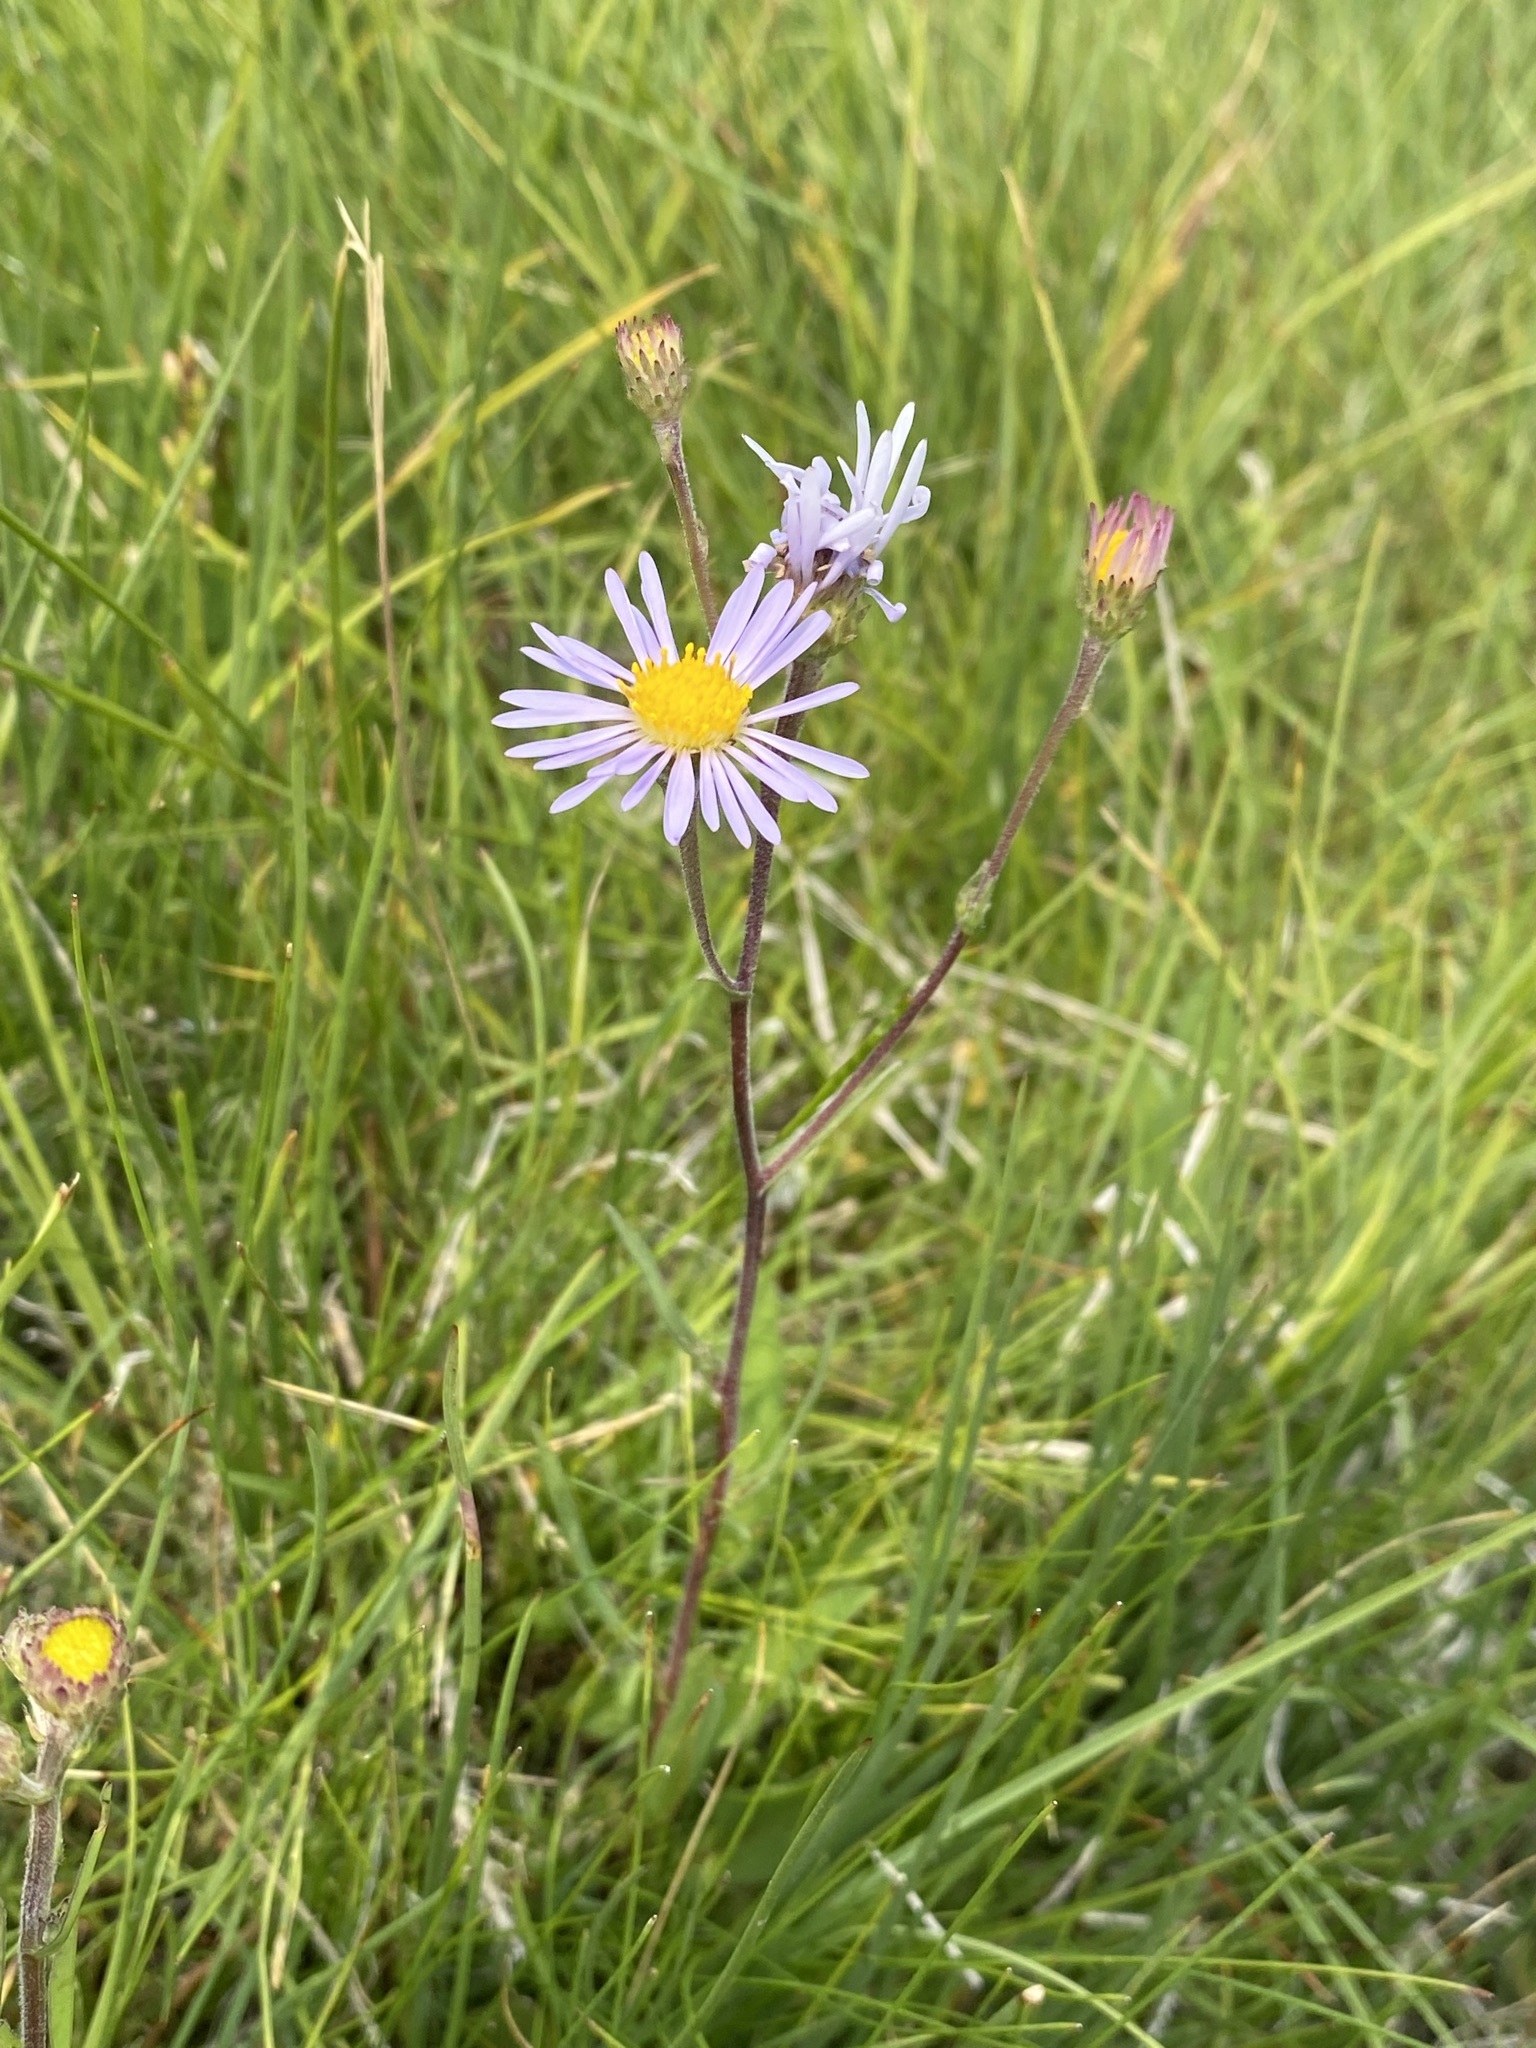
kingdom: Plantae
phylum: Tracheophyta
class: Magnoliopsida
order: Asterales
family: Asteraceae
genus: Symphyotrichum
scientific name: Symphyotrichum spathulatum
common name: Western mountain aster
